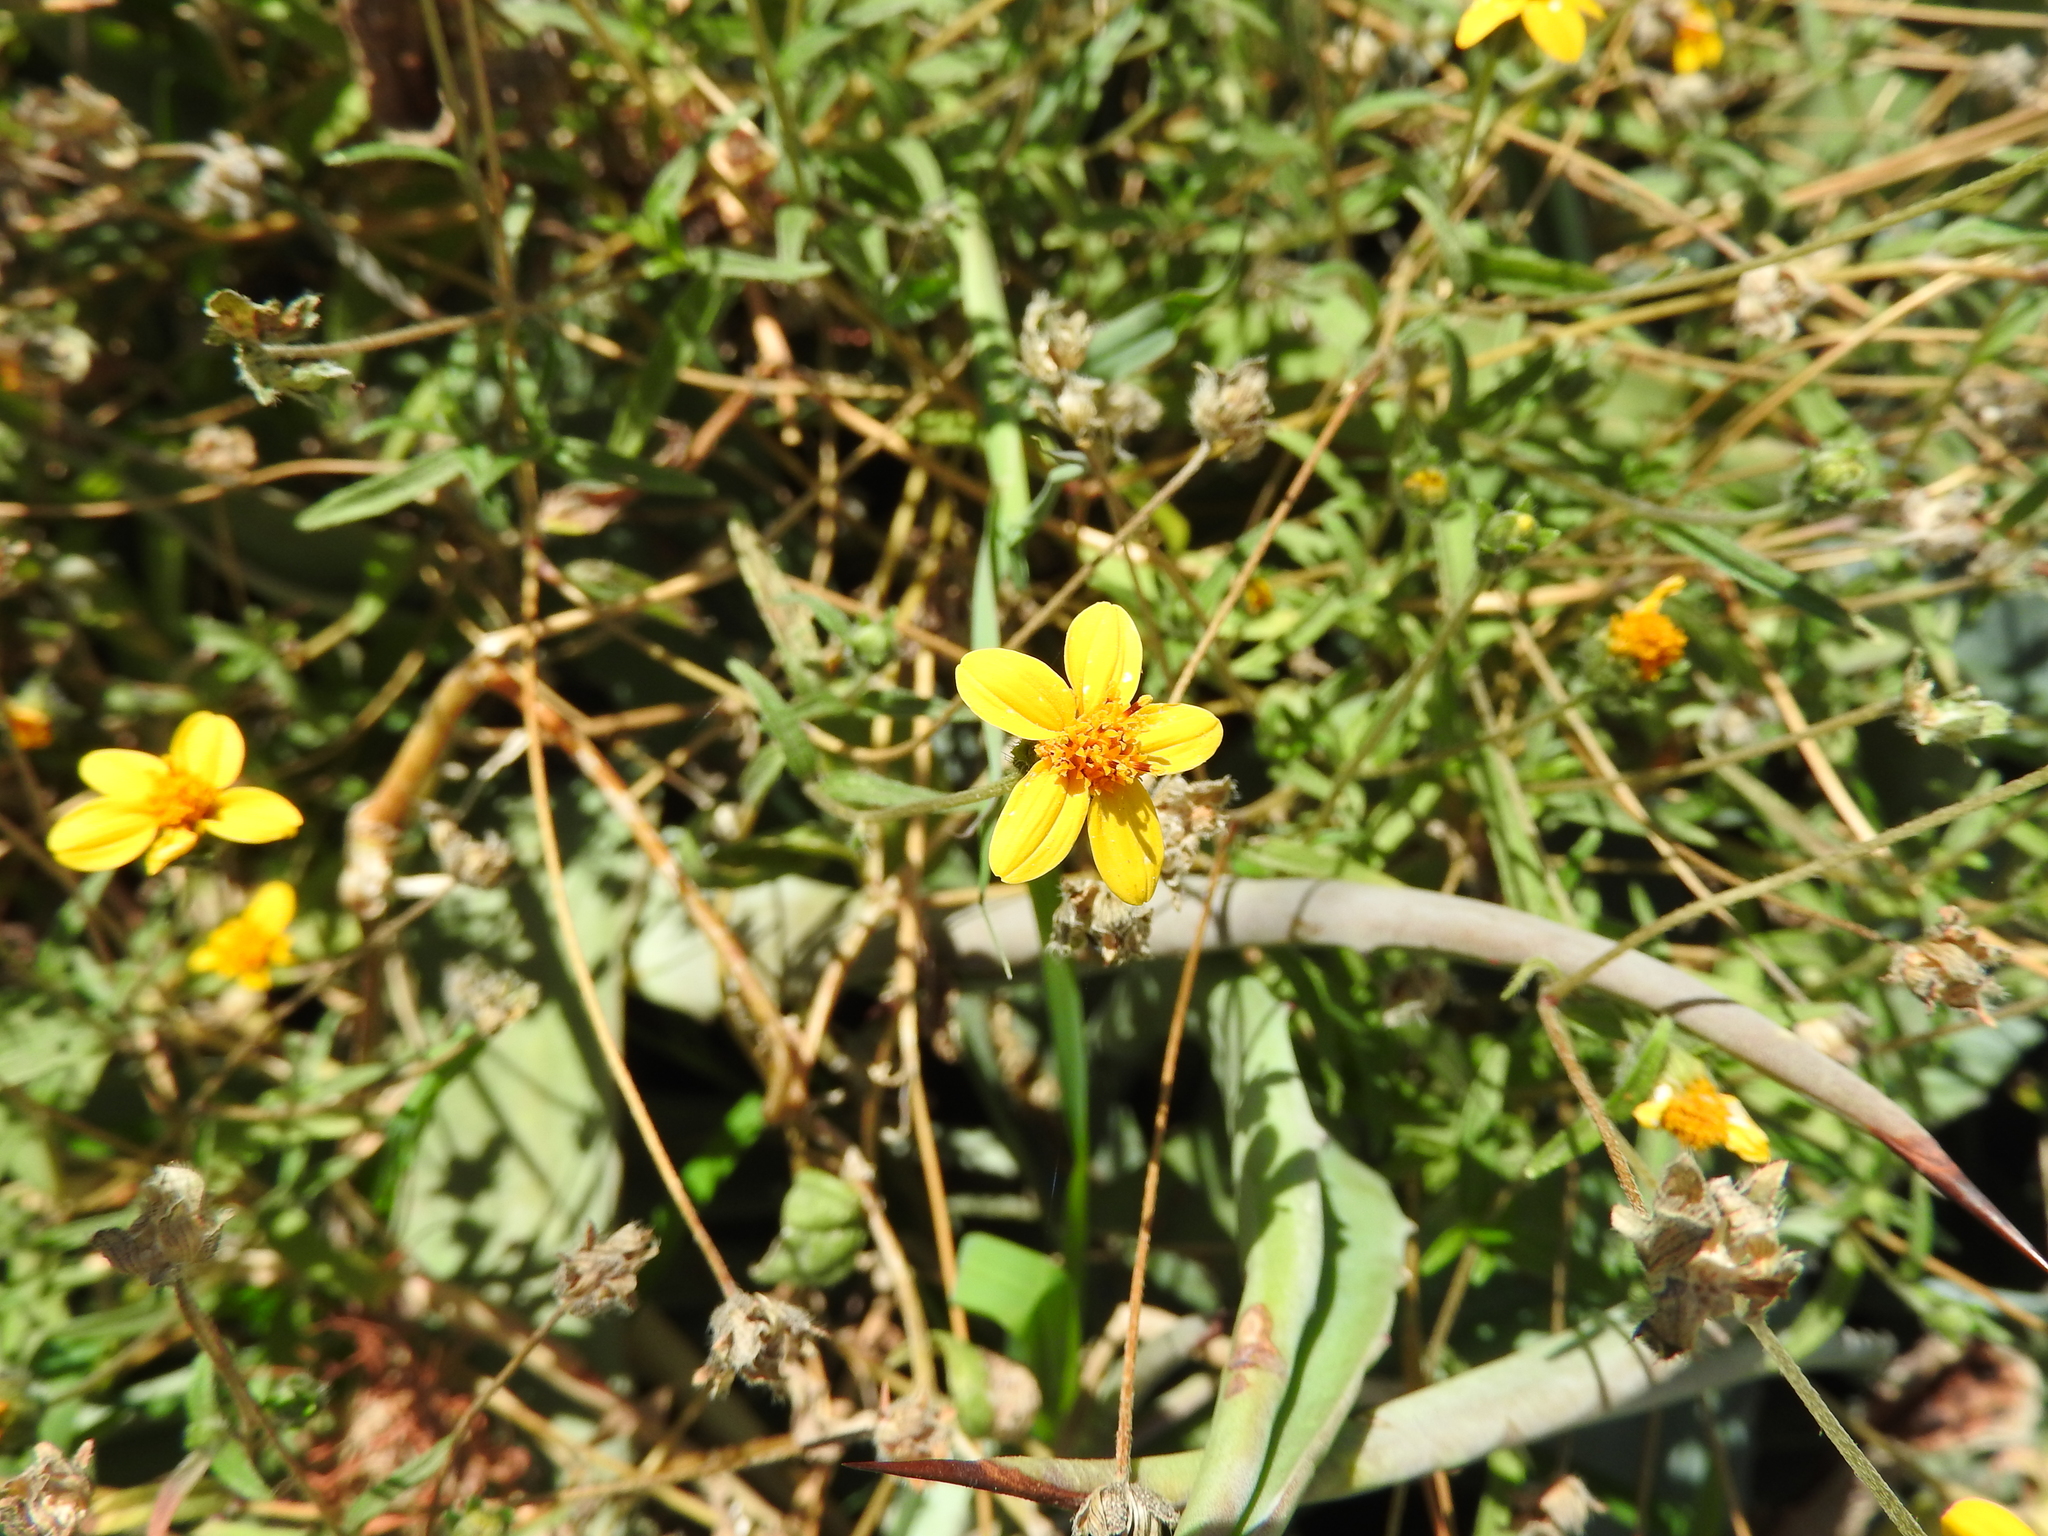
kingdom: Plantae
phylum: Tracheophyta
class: Magnoliopsida
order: Asterales
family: Asteraceae
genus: Aldama
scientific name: Aldama dentata
